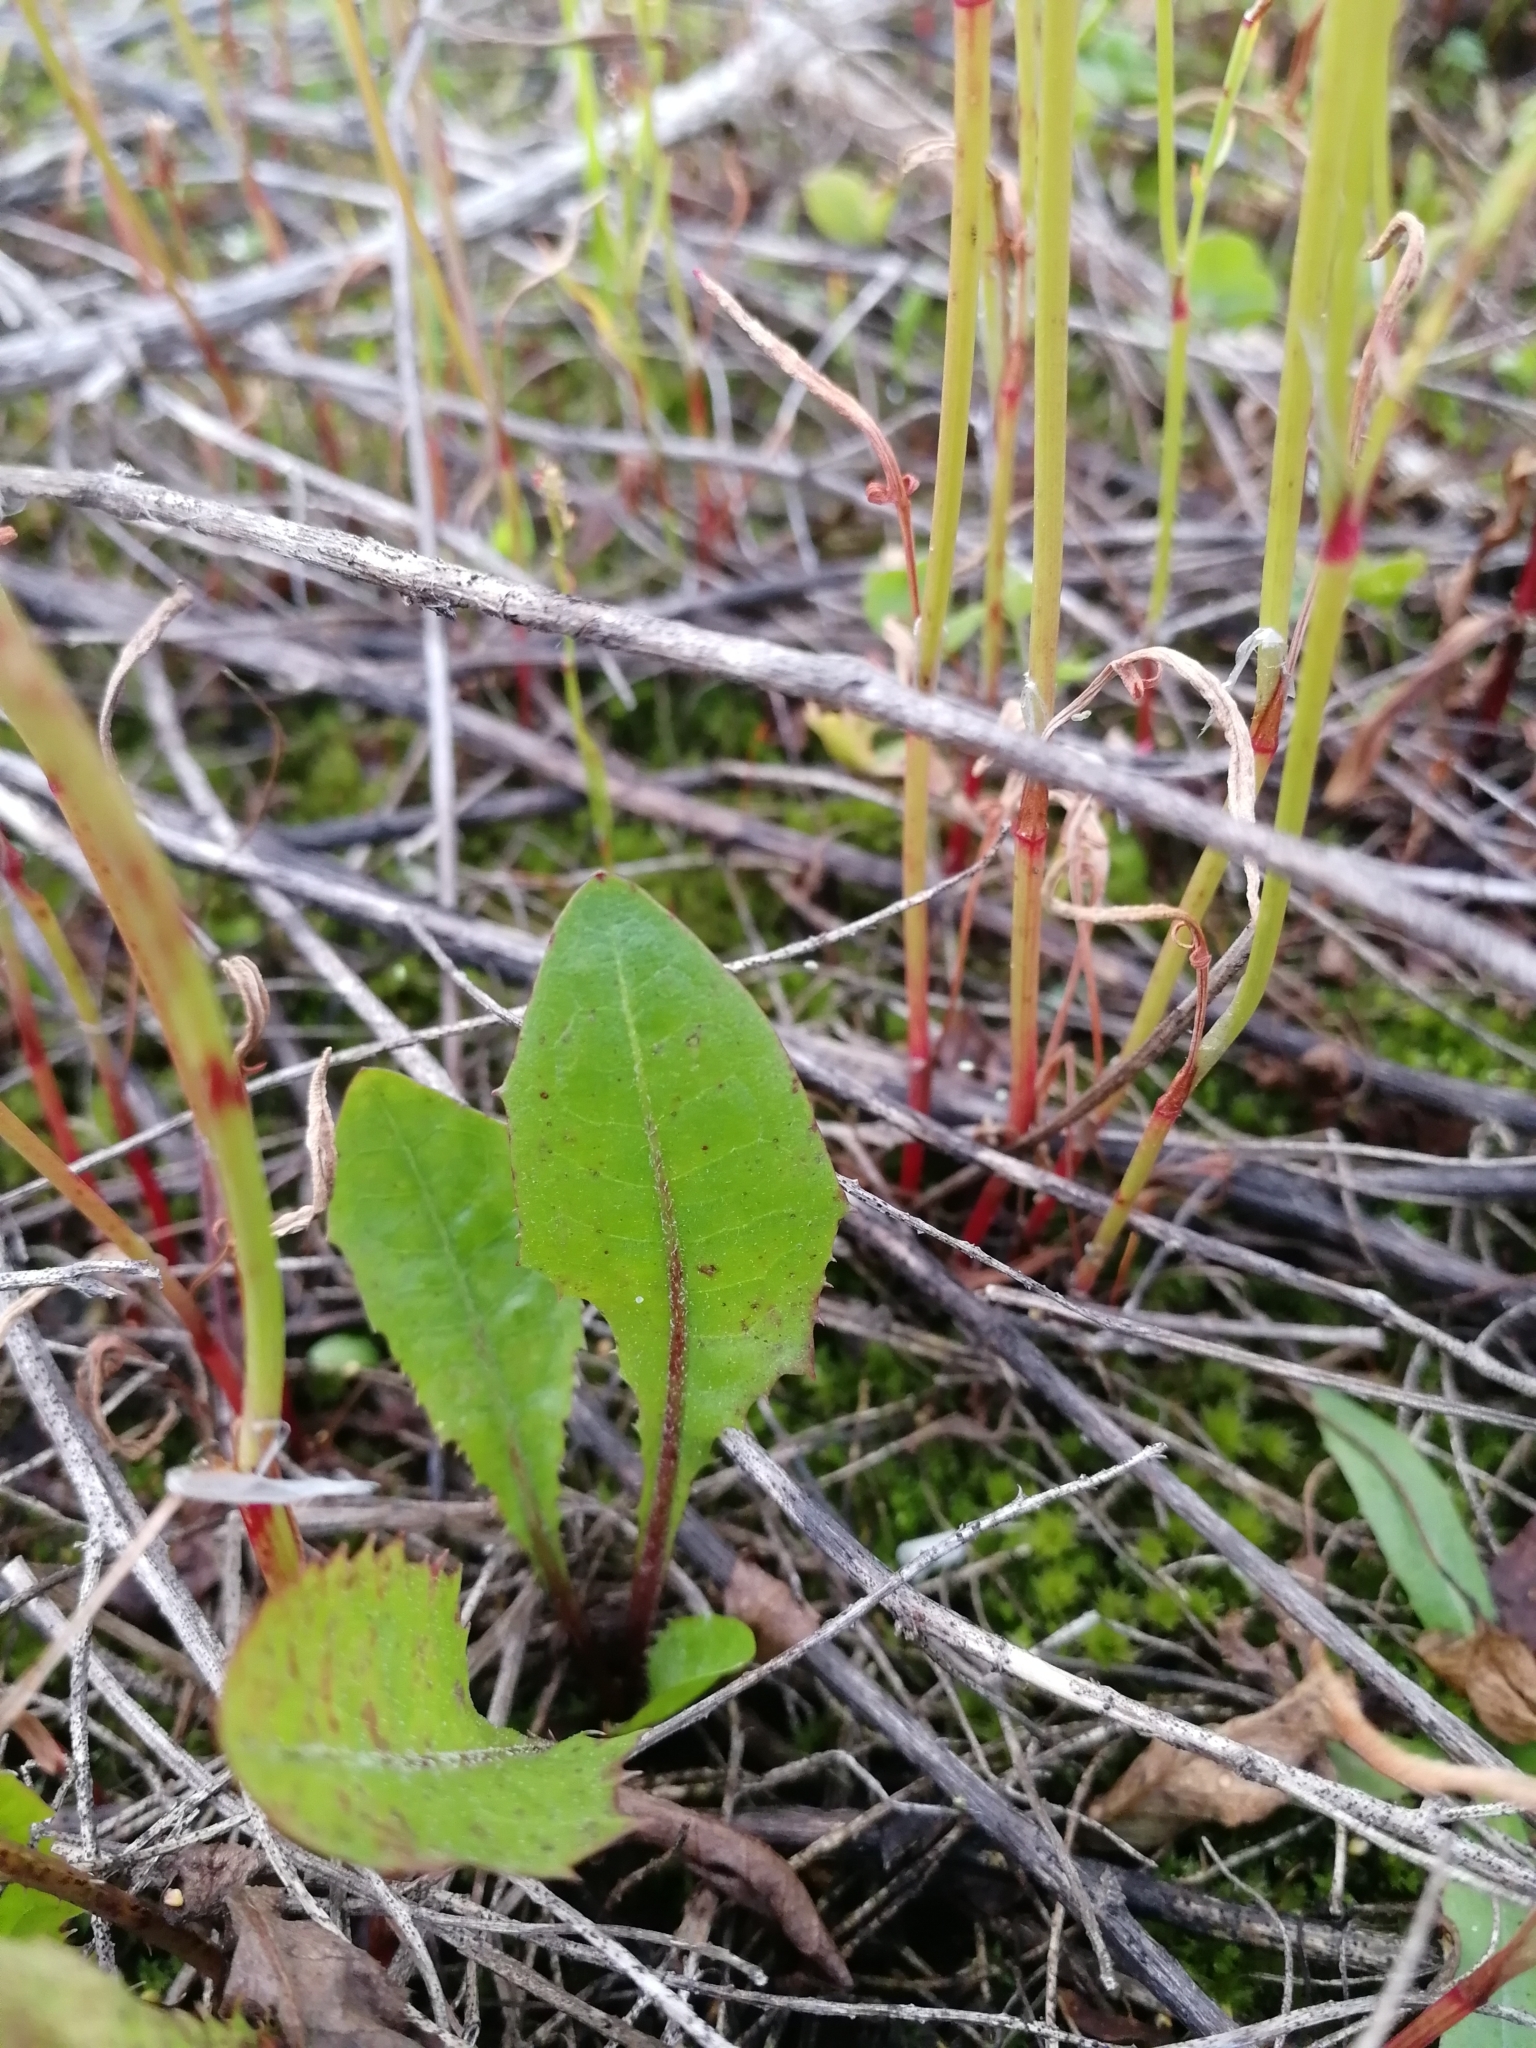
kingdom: Plantae
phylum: Tracheophyta
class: Magnoliopsida
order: Caryophyllales
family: Polygonaceae
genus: Rumex
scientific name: Rumex acetosella
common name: Common sheep sorrel
